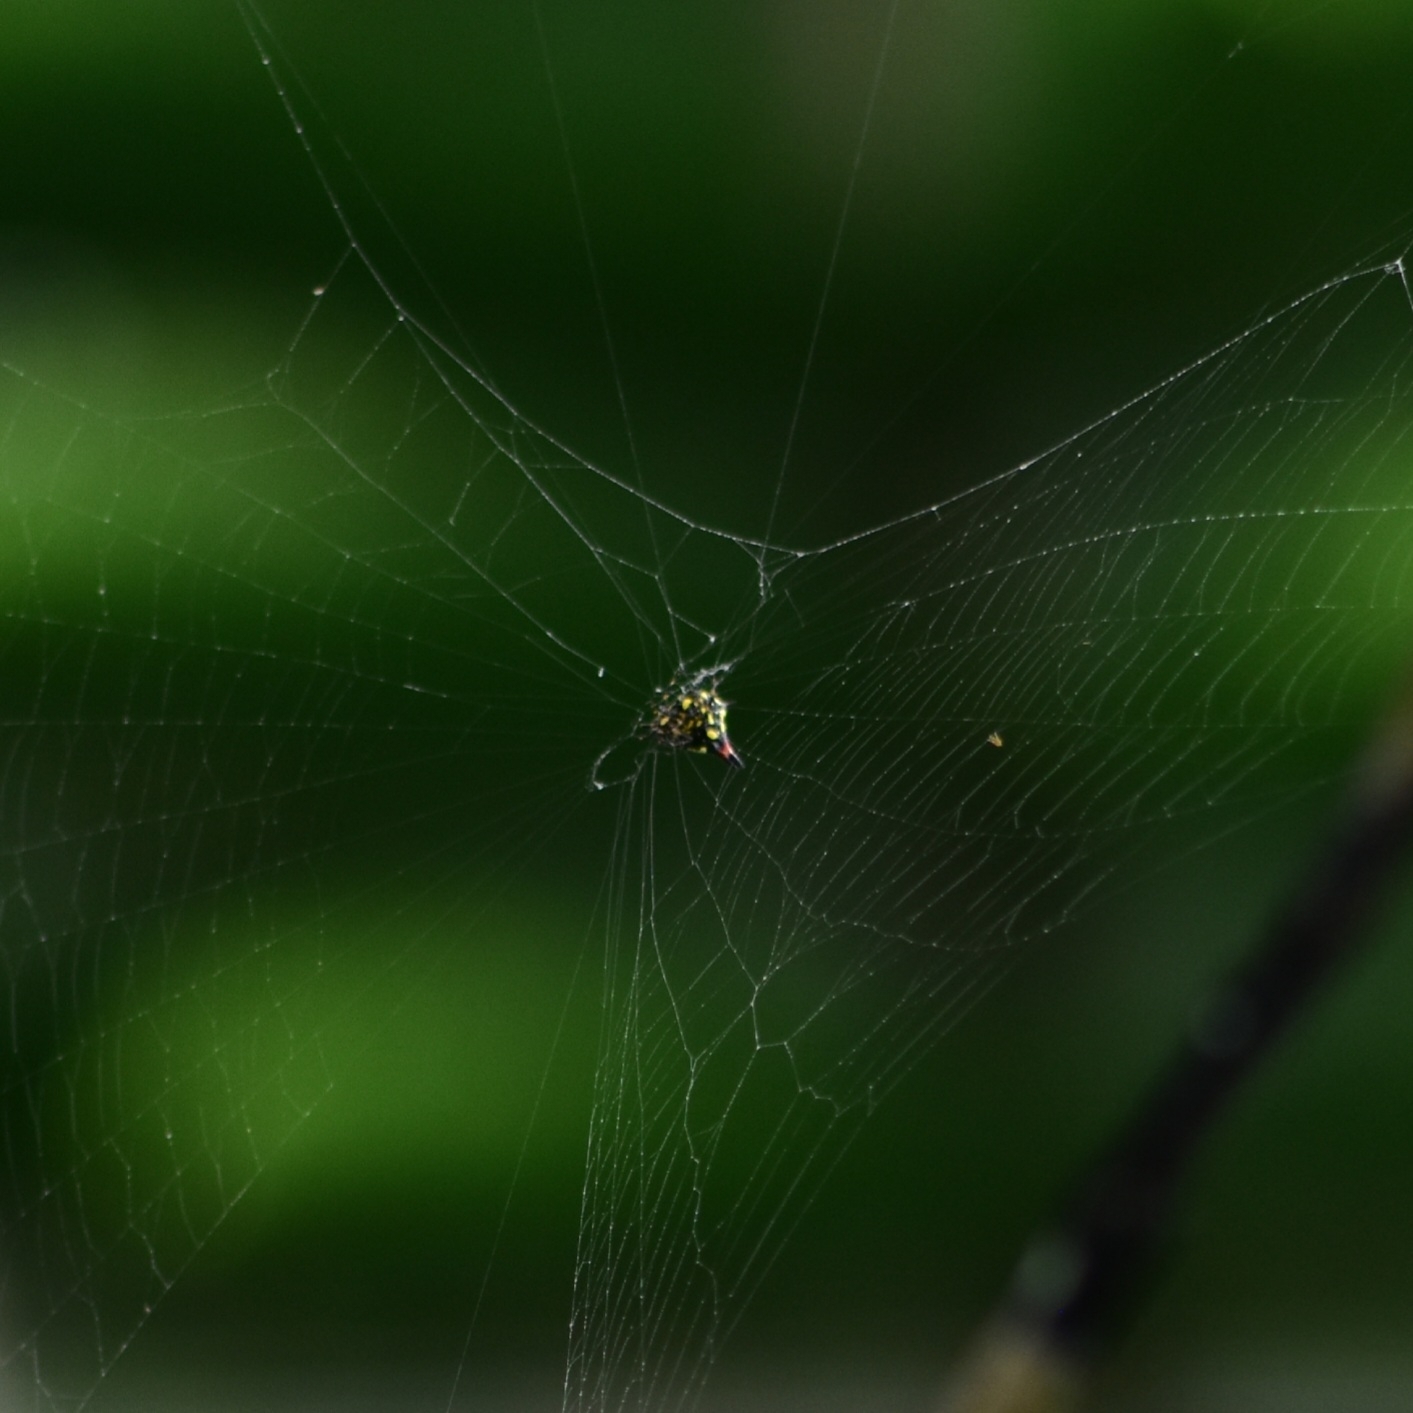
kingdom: Animalia
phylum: Arthropoda
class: Arachnida
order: Araneae
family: Araneidae
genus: Gasteracantha
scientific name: Gasteracantha geminata
